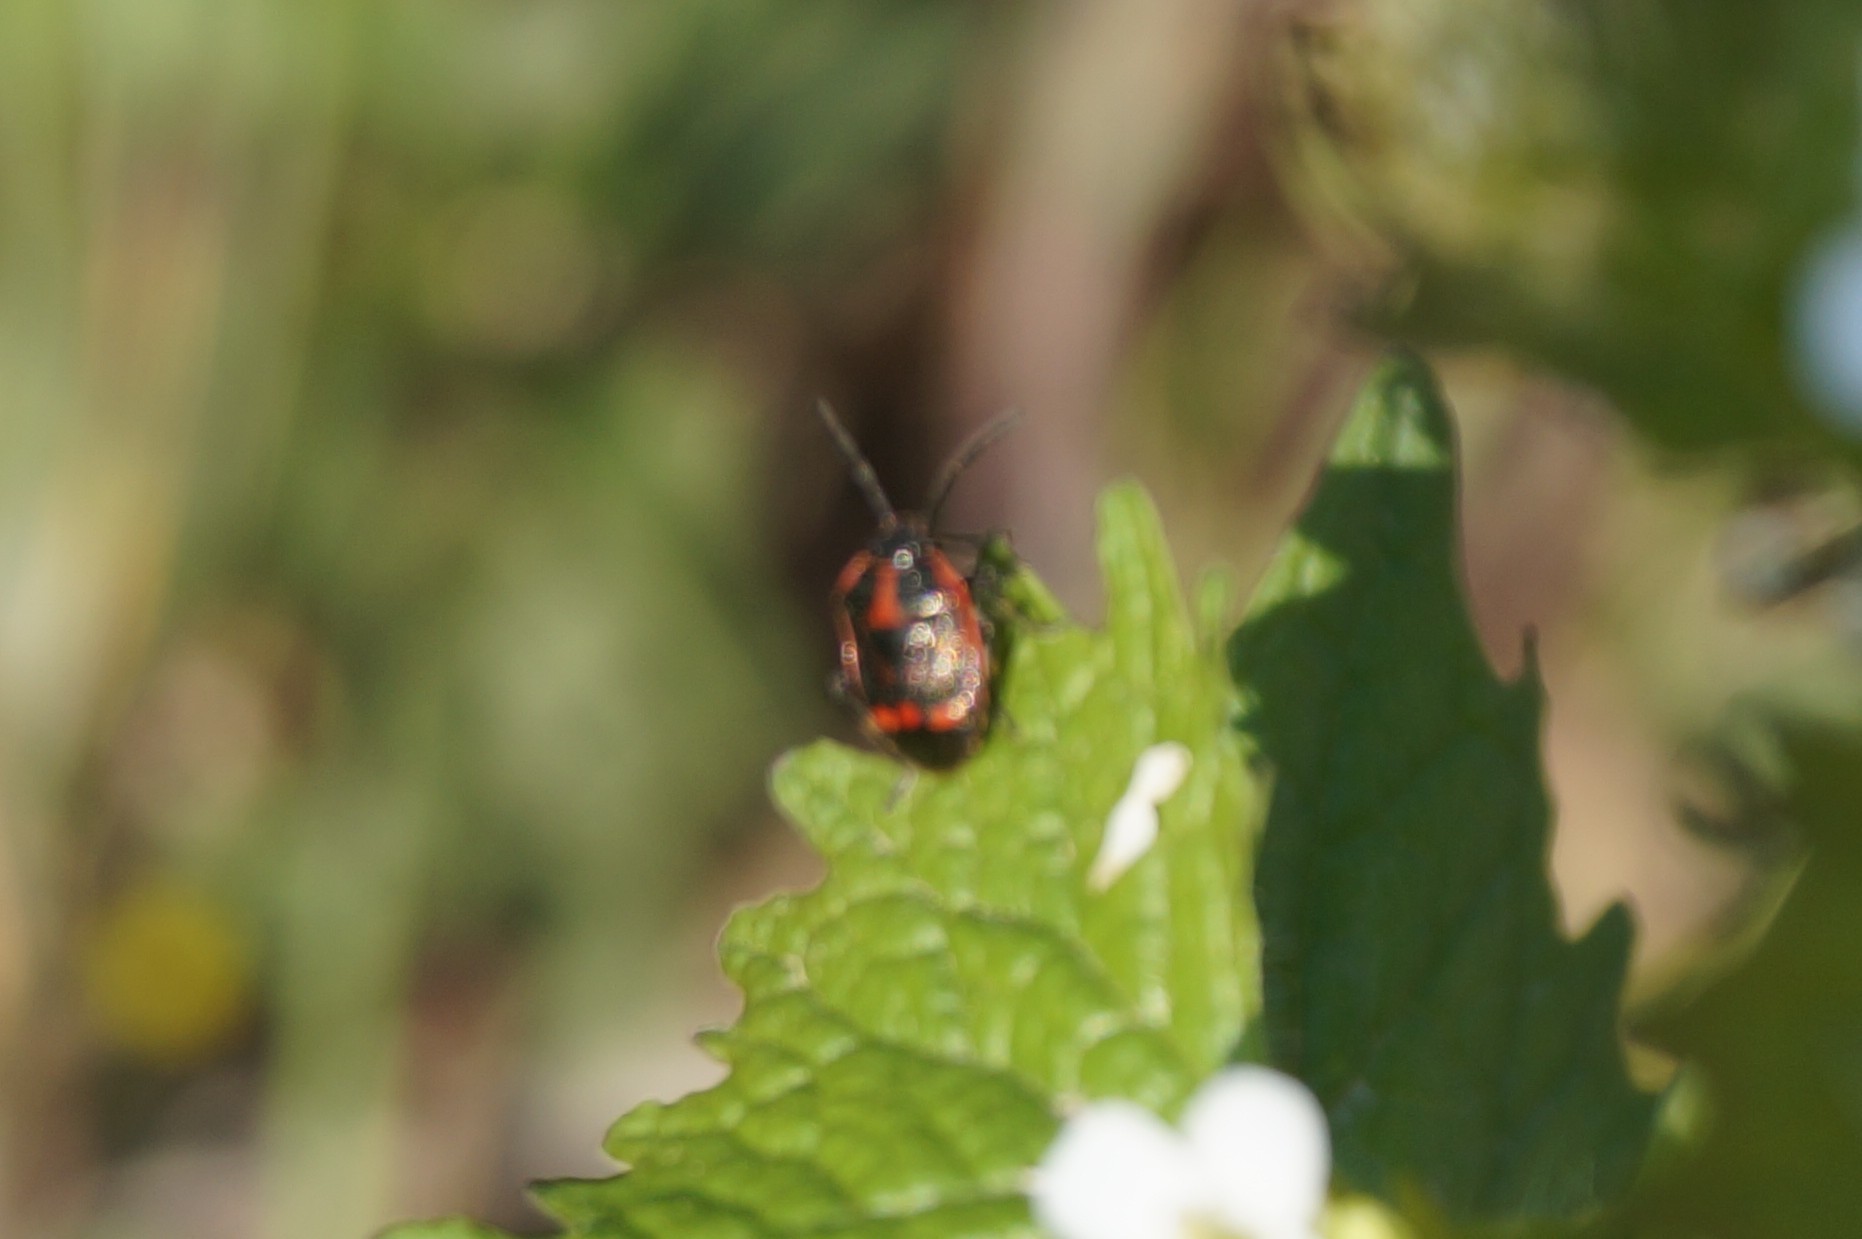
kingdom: Animalia
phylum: Arthropoda
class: Insecta
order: Hemiptera
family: Pentatomidae
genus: Eurydema
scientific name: Eurydema oleracea
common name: Cabbage bug
